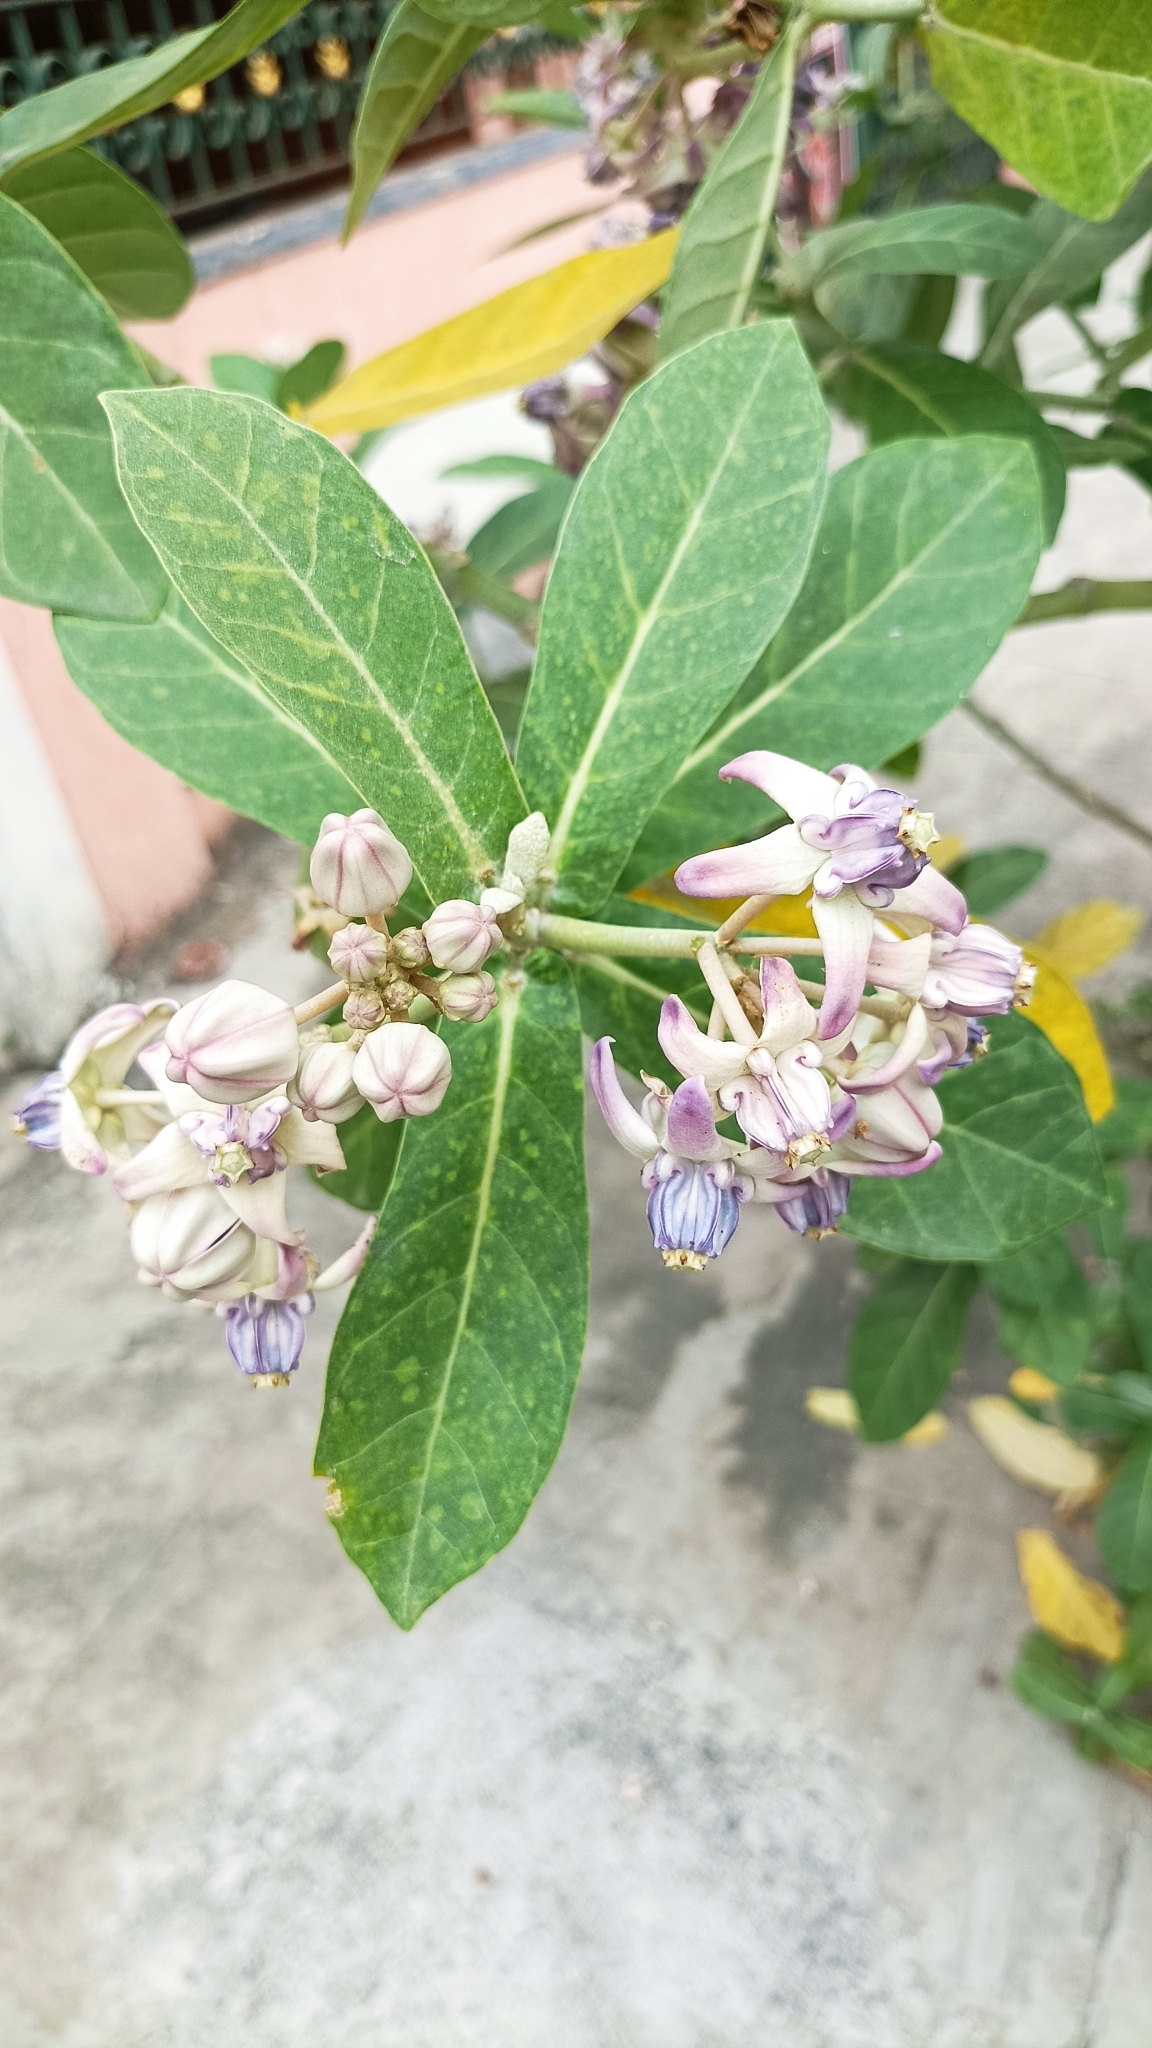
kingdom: Plantae
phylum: Tracheophyta
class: Magnoliopsida
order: Gentianales
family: Apocynaceae
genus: Calotropis
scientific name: Calotropis gigantea
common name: Crown flower
